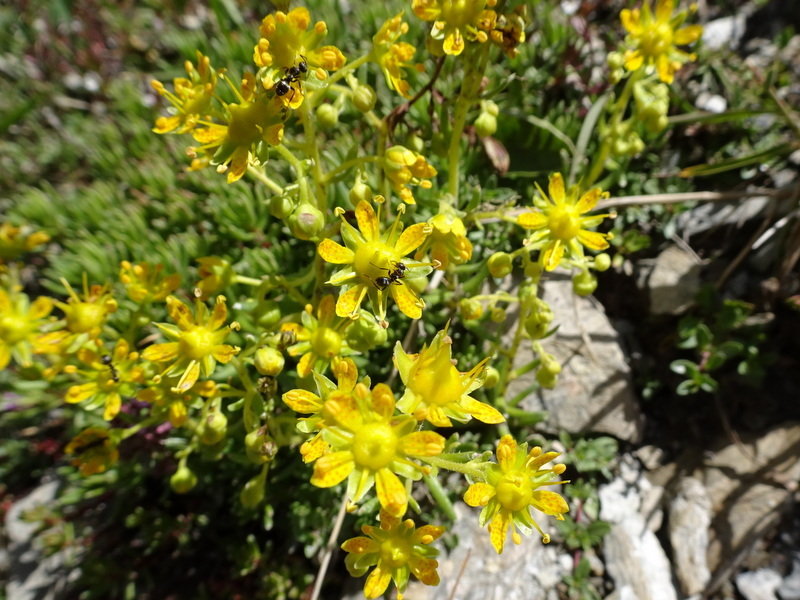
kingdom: Plantae
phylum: Tracheophyta
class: Magnoliopsida
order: Saxifragales
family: Saxifragaceae
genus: Saxifraga
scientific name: Saxifraga aizoides
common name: Yellow mountain saxifrage
